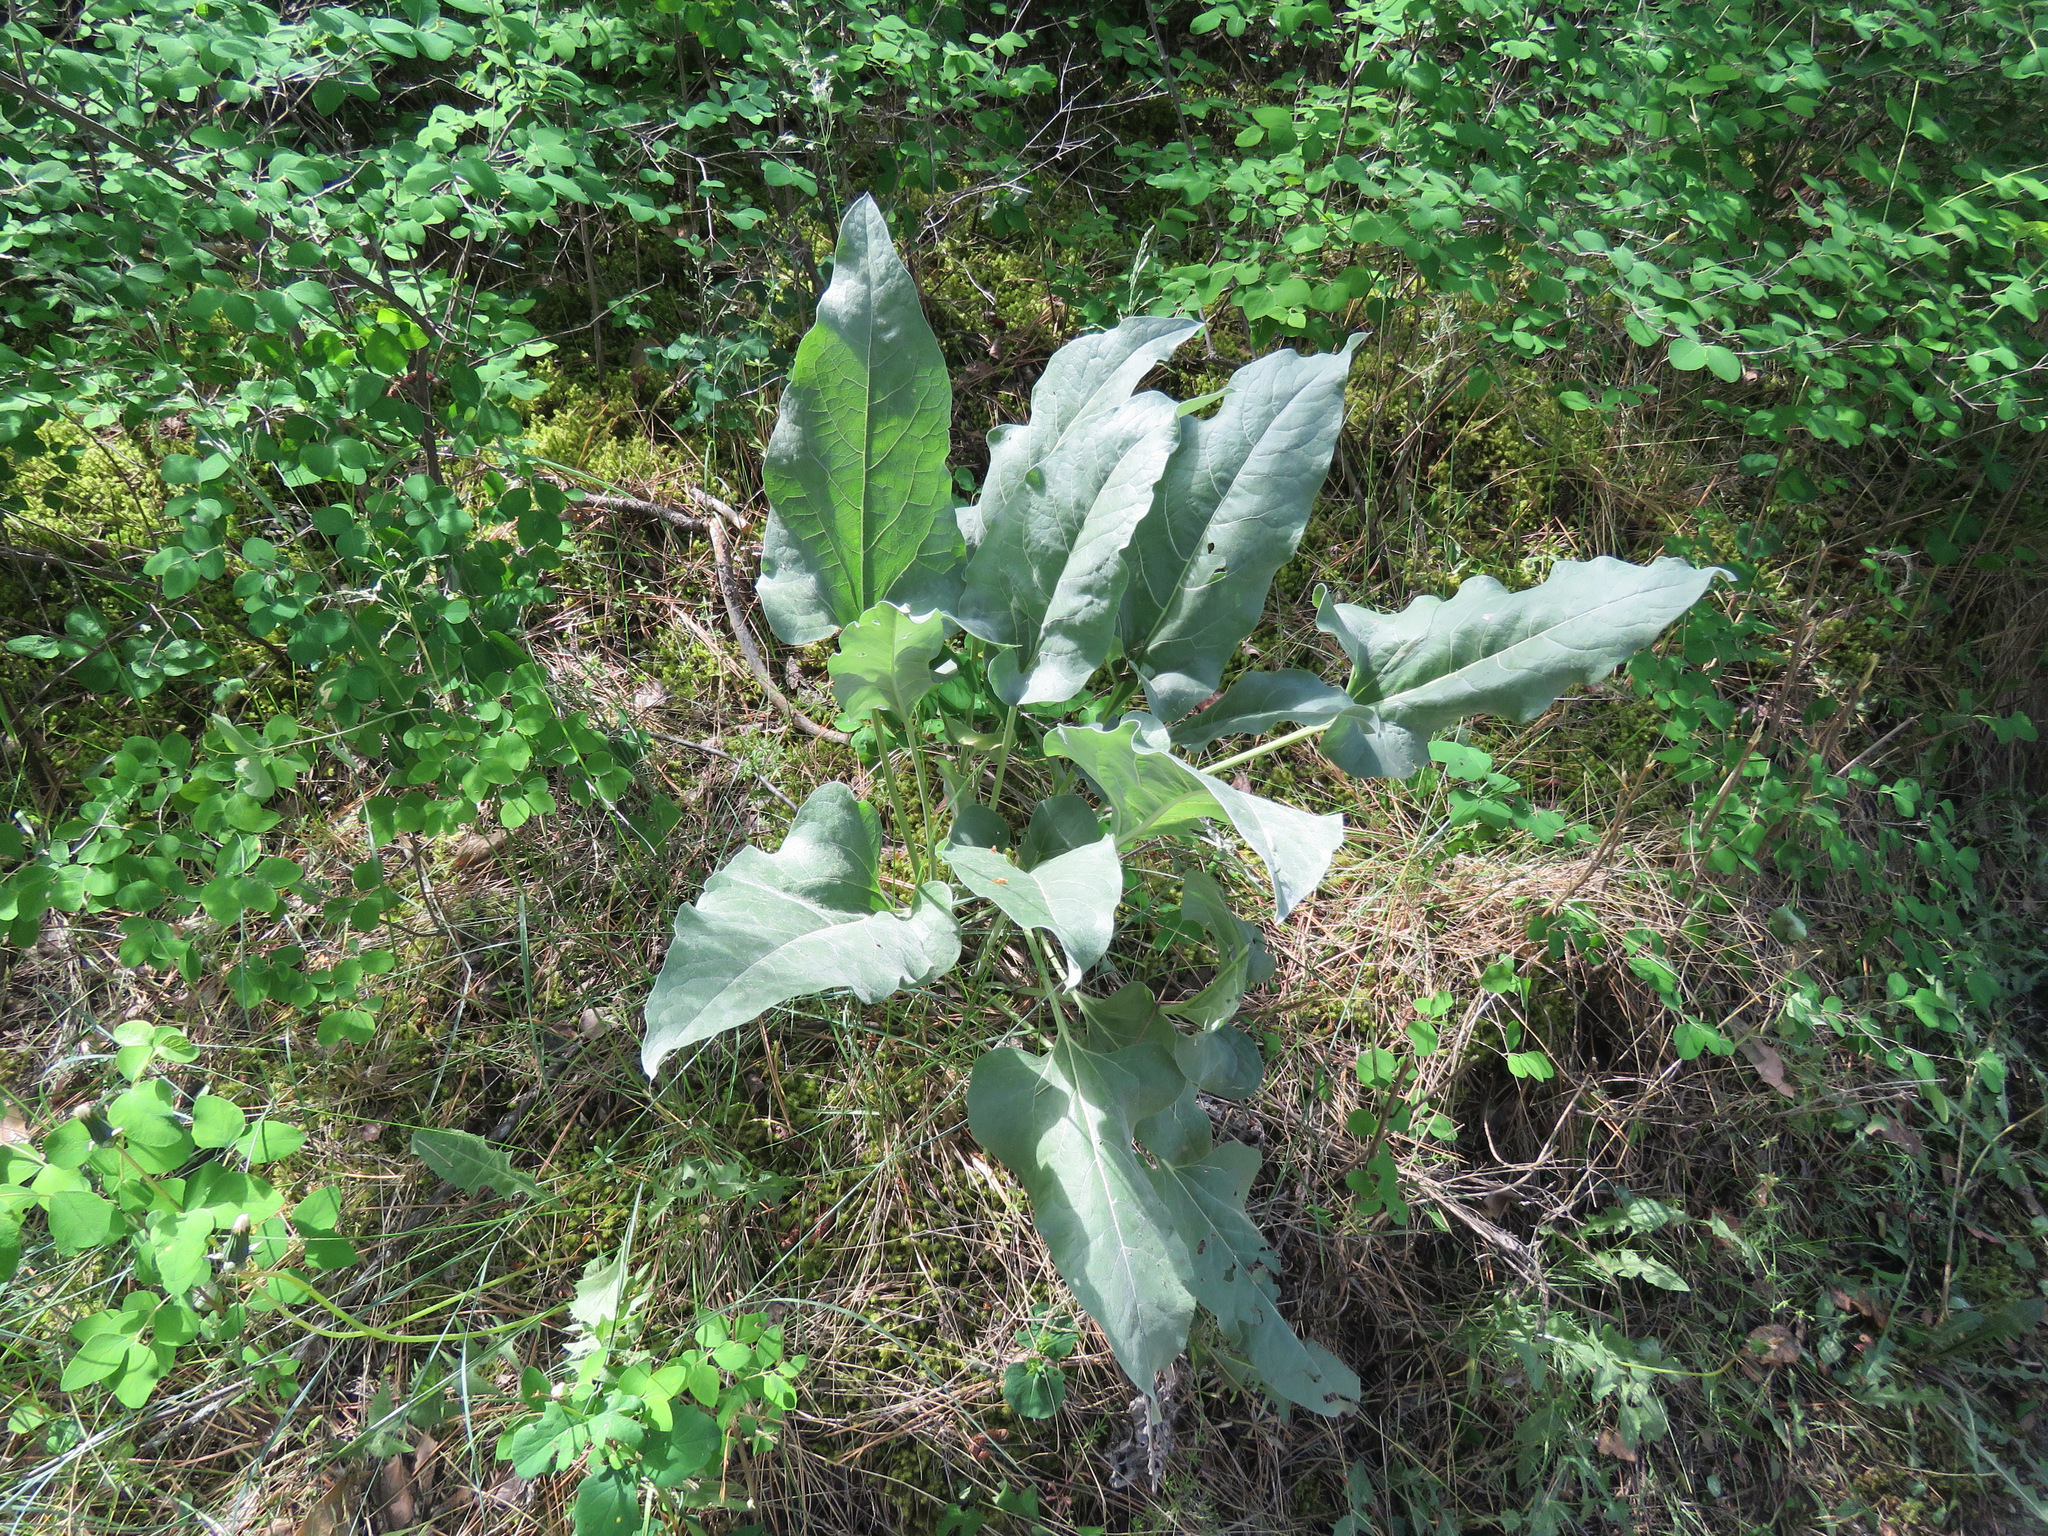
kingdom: Plantae
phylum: Tracheophyta
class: Magnoliopsida
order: Asterales
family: Asteraceae
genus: Wyethia
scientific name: Wyethia sagittata
